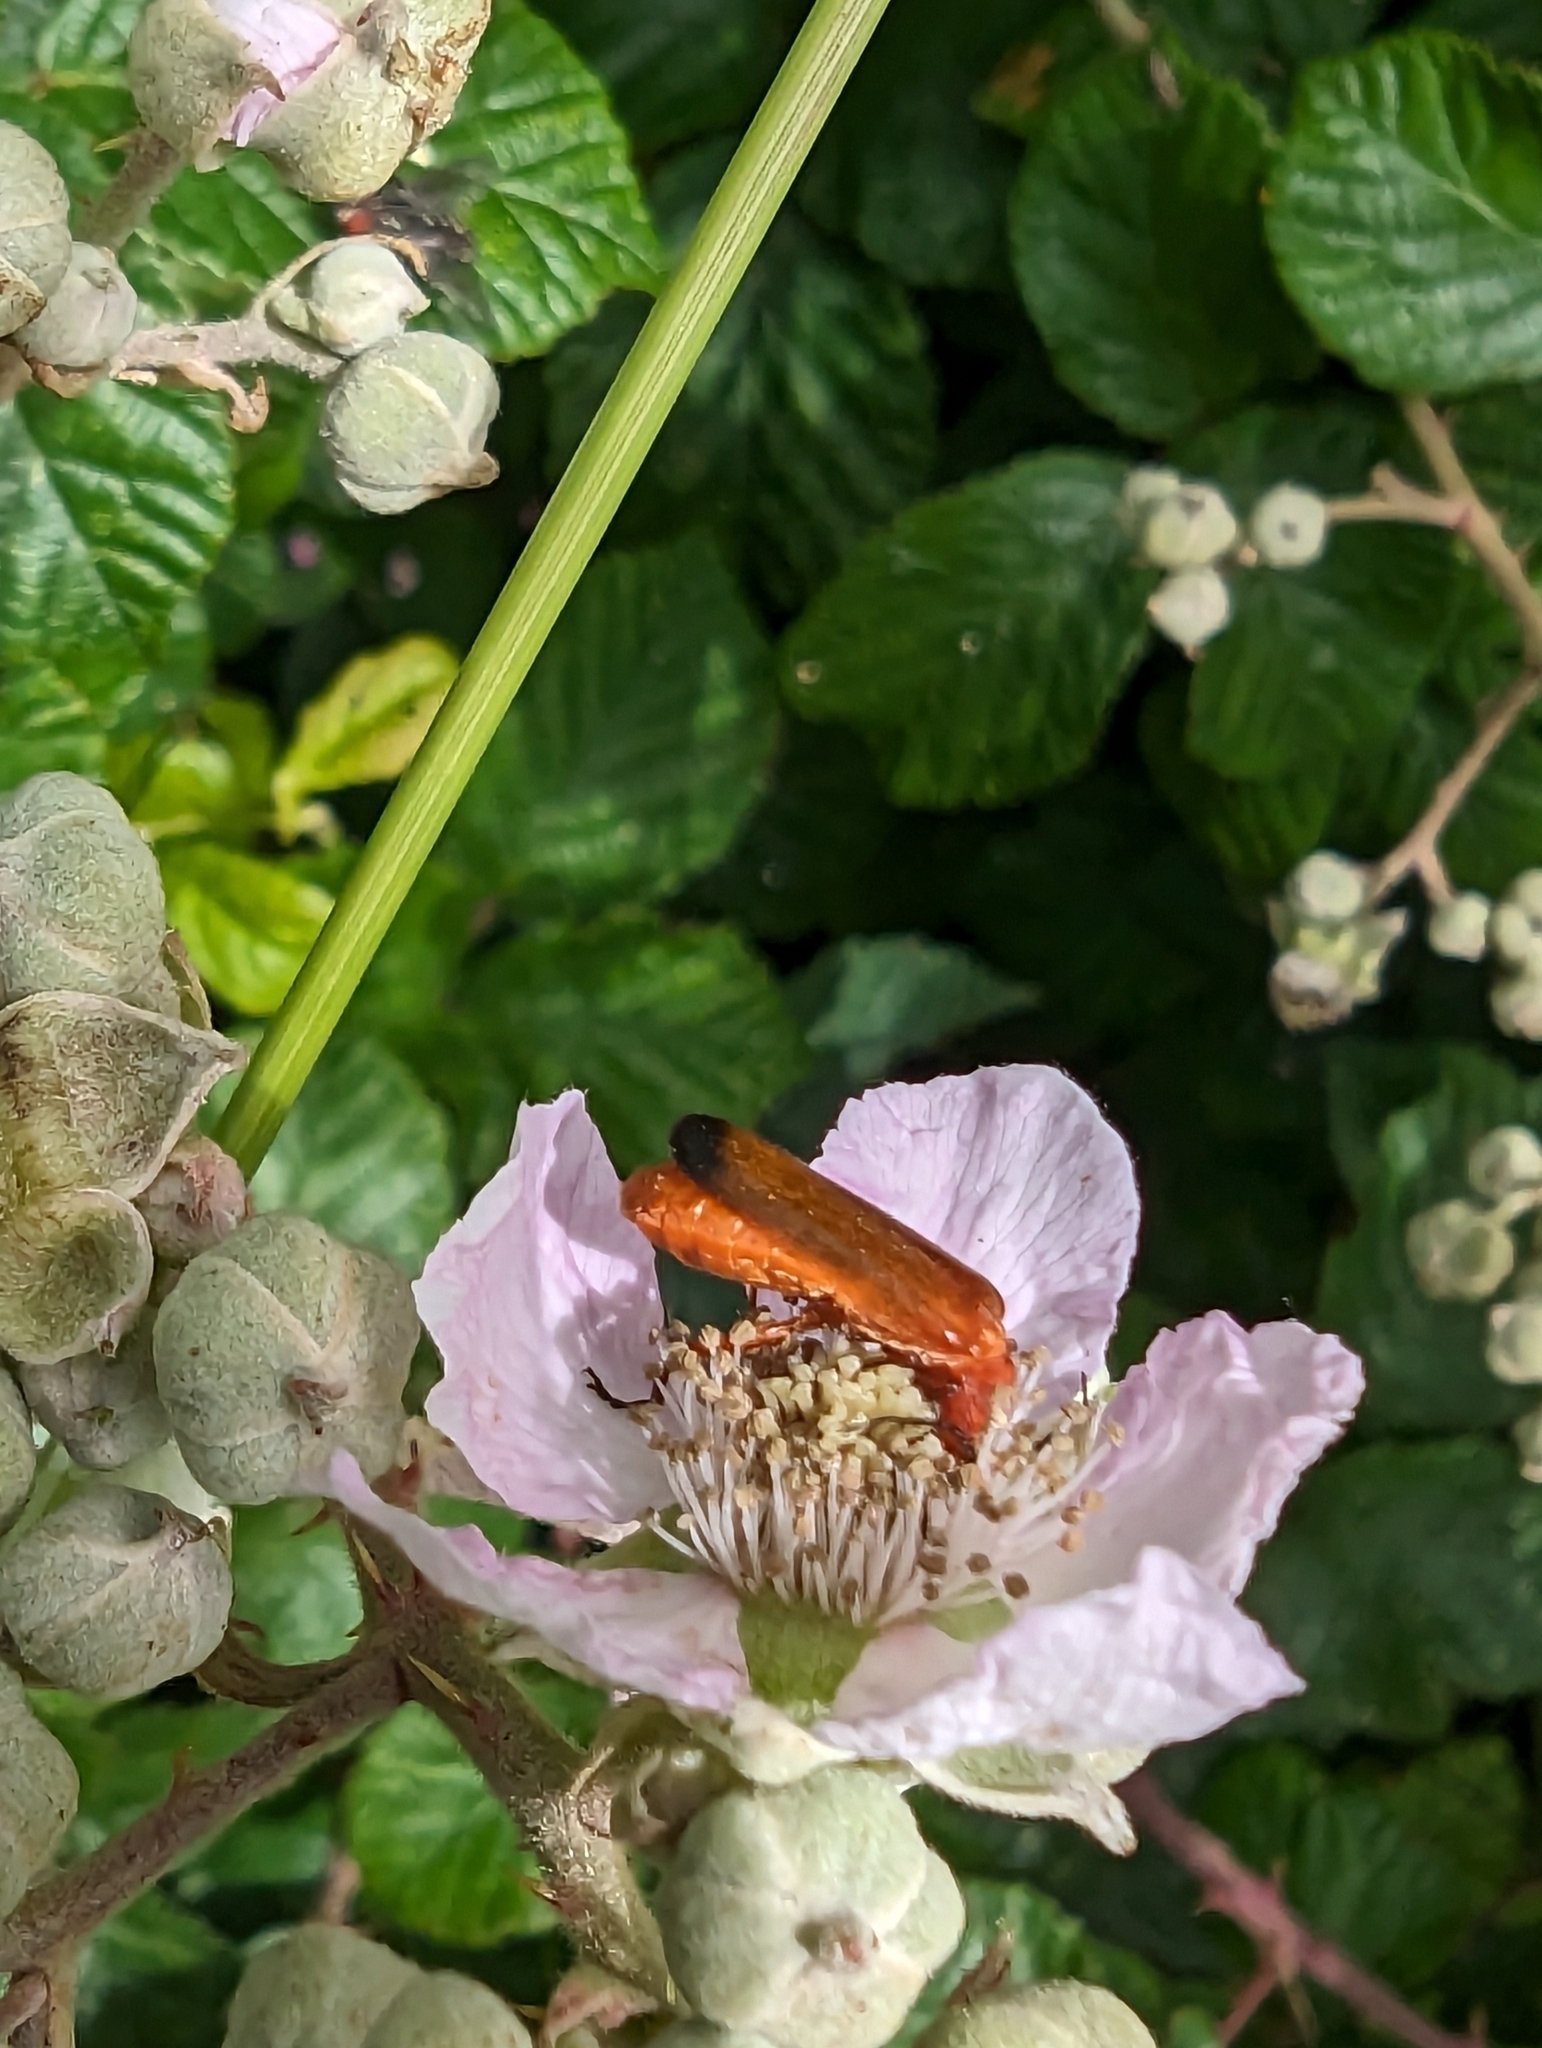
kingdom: Animalia
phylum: Arthropoda
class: Insecta
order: Coleoptera
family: Cantharidae
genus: Rhagonycha
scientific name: Rhagonycha fulva
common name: Common red soldier beetle
